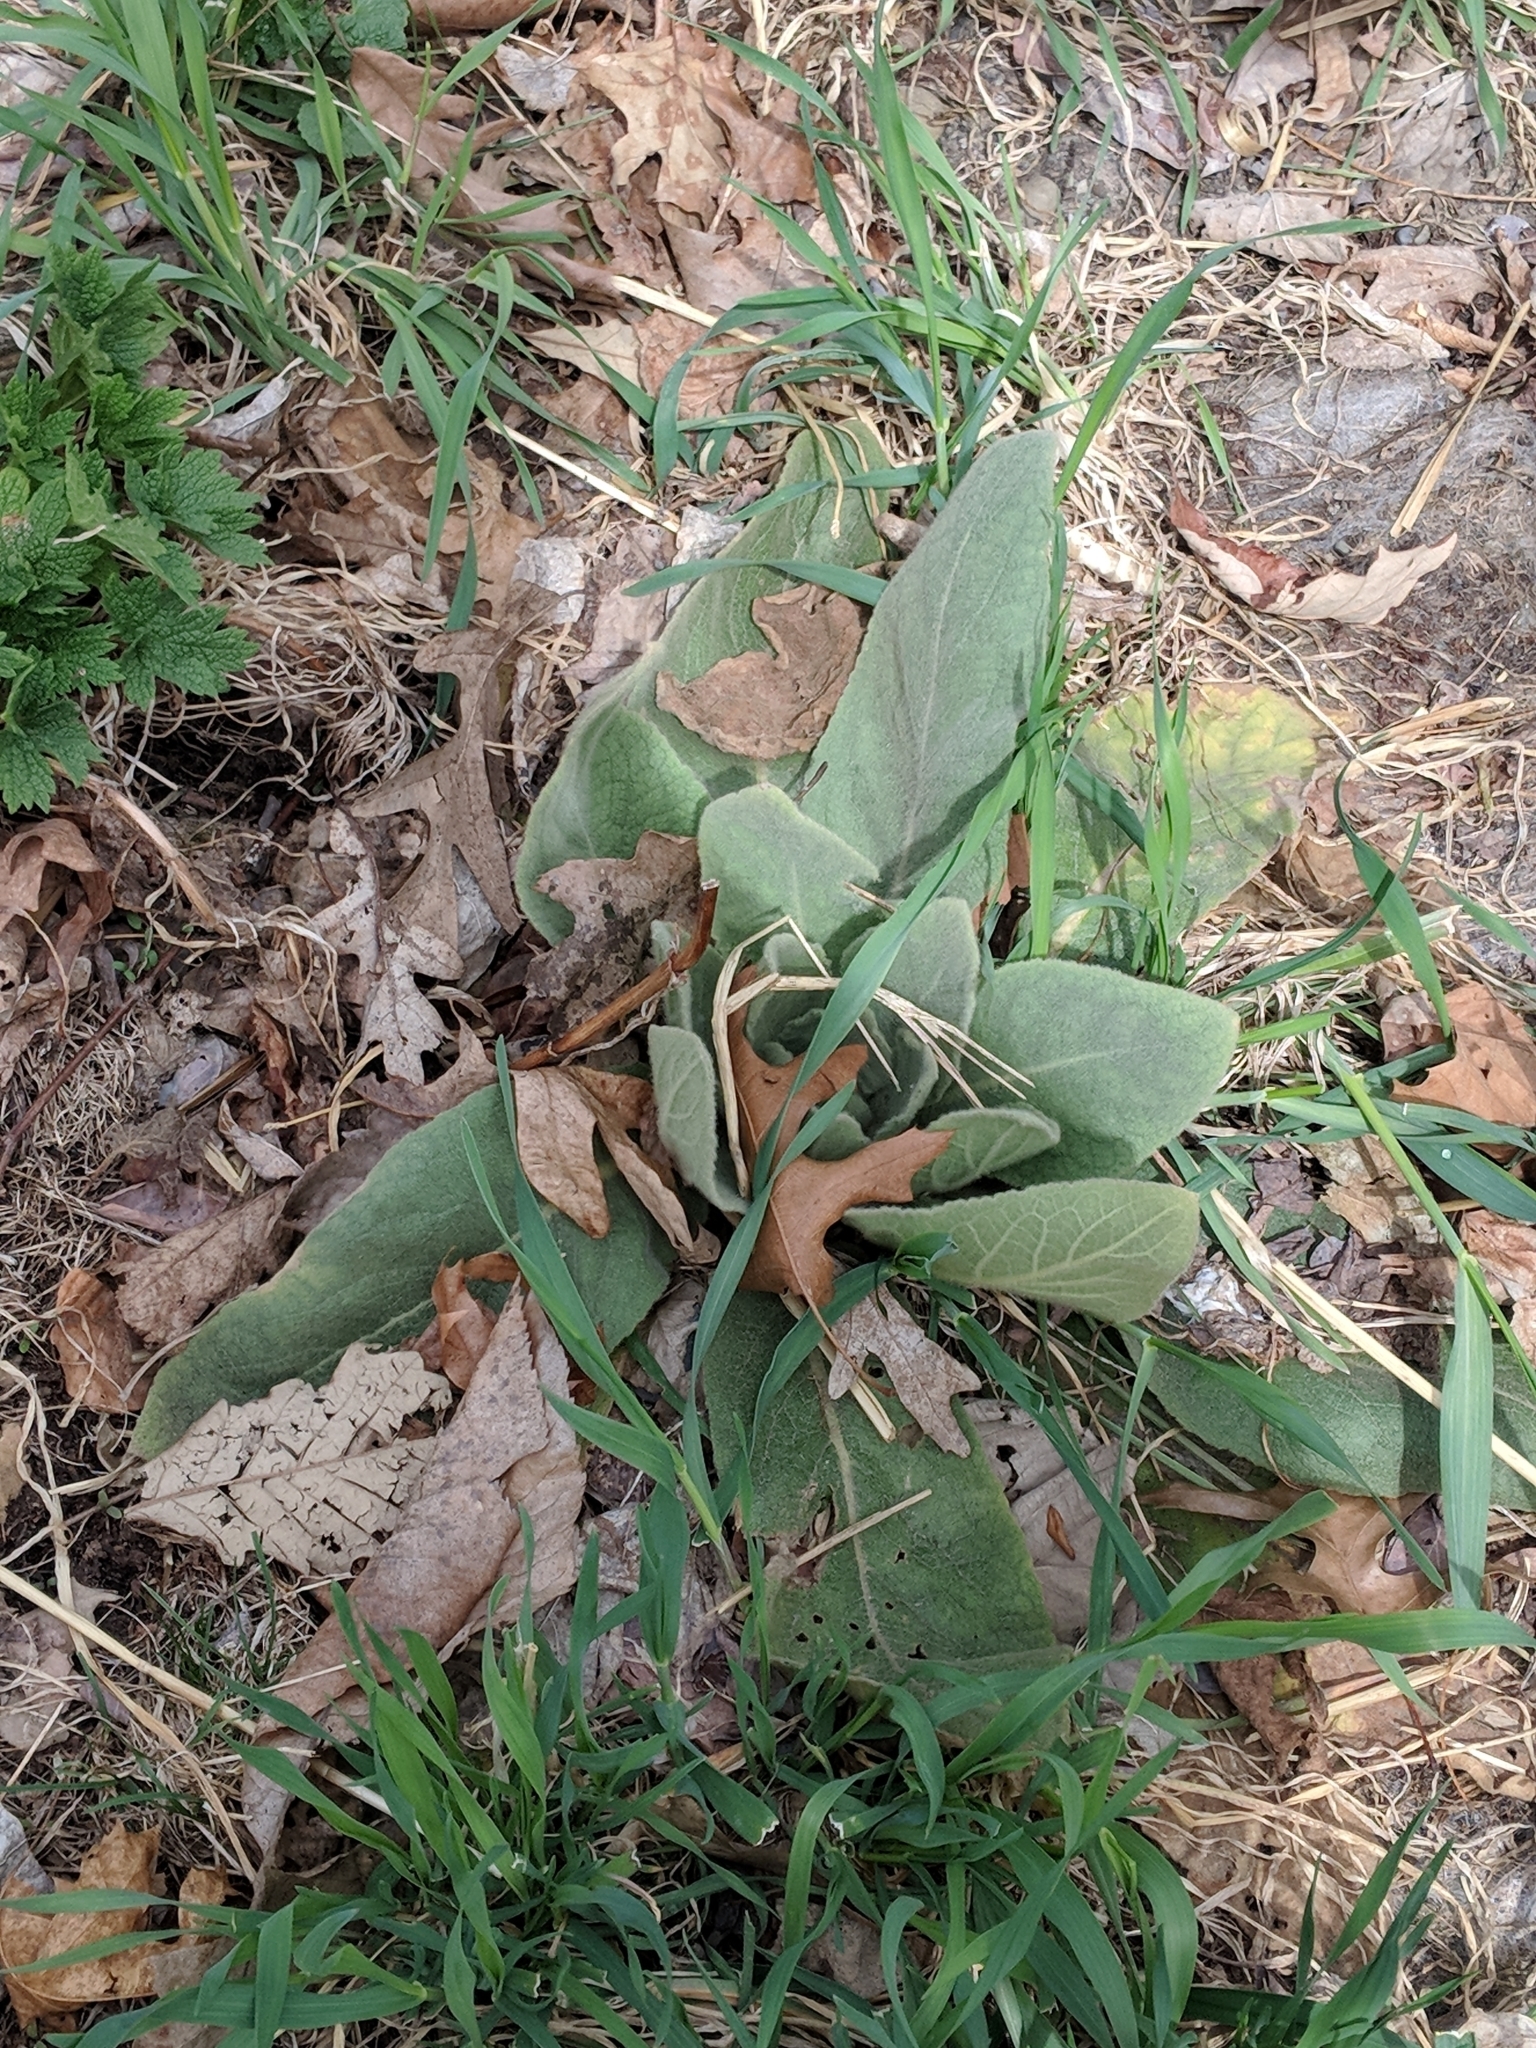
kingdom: Plantae
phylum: Tracheophyta
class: Magnoliopsida
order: Lamiales
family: Scrophulariaceae
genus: Verbascum
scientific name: Verbascum thapsus
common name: Common mullein
